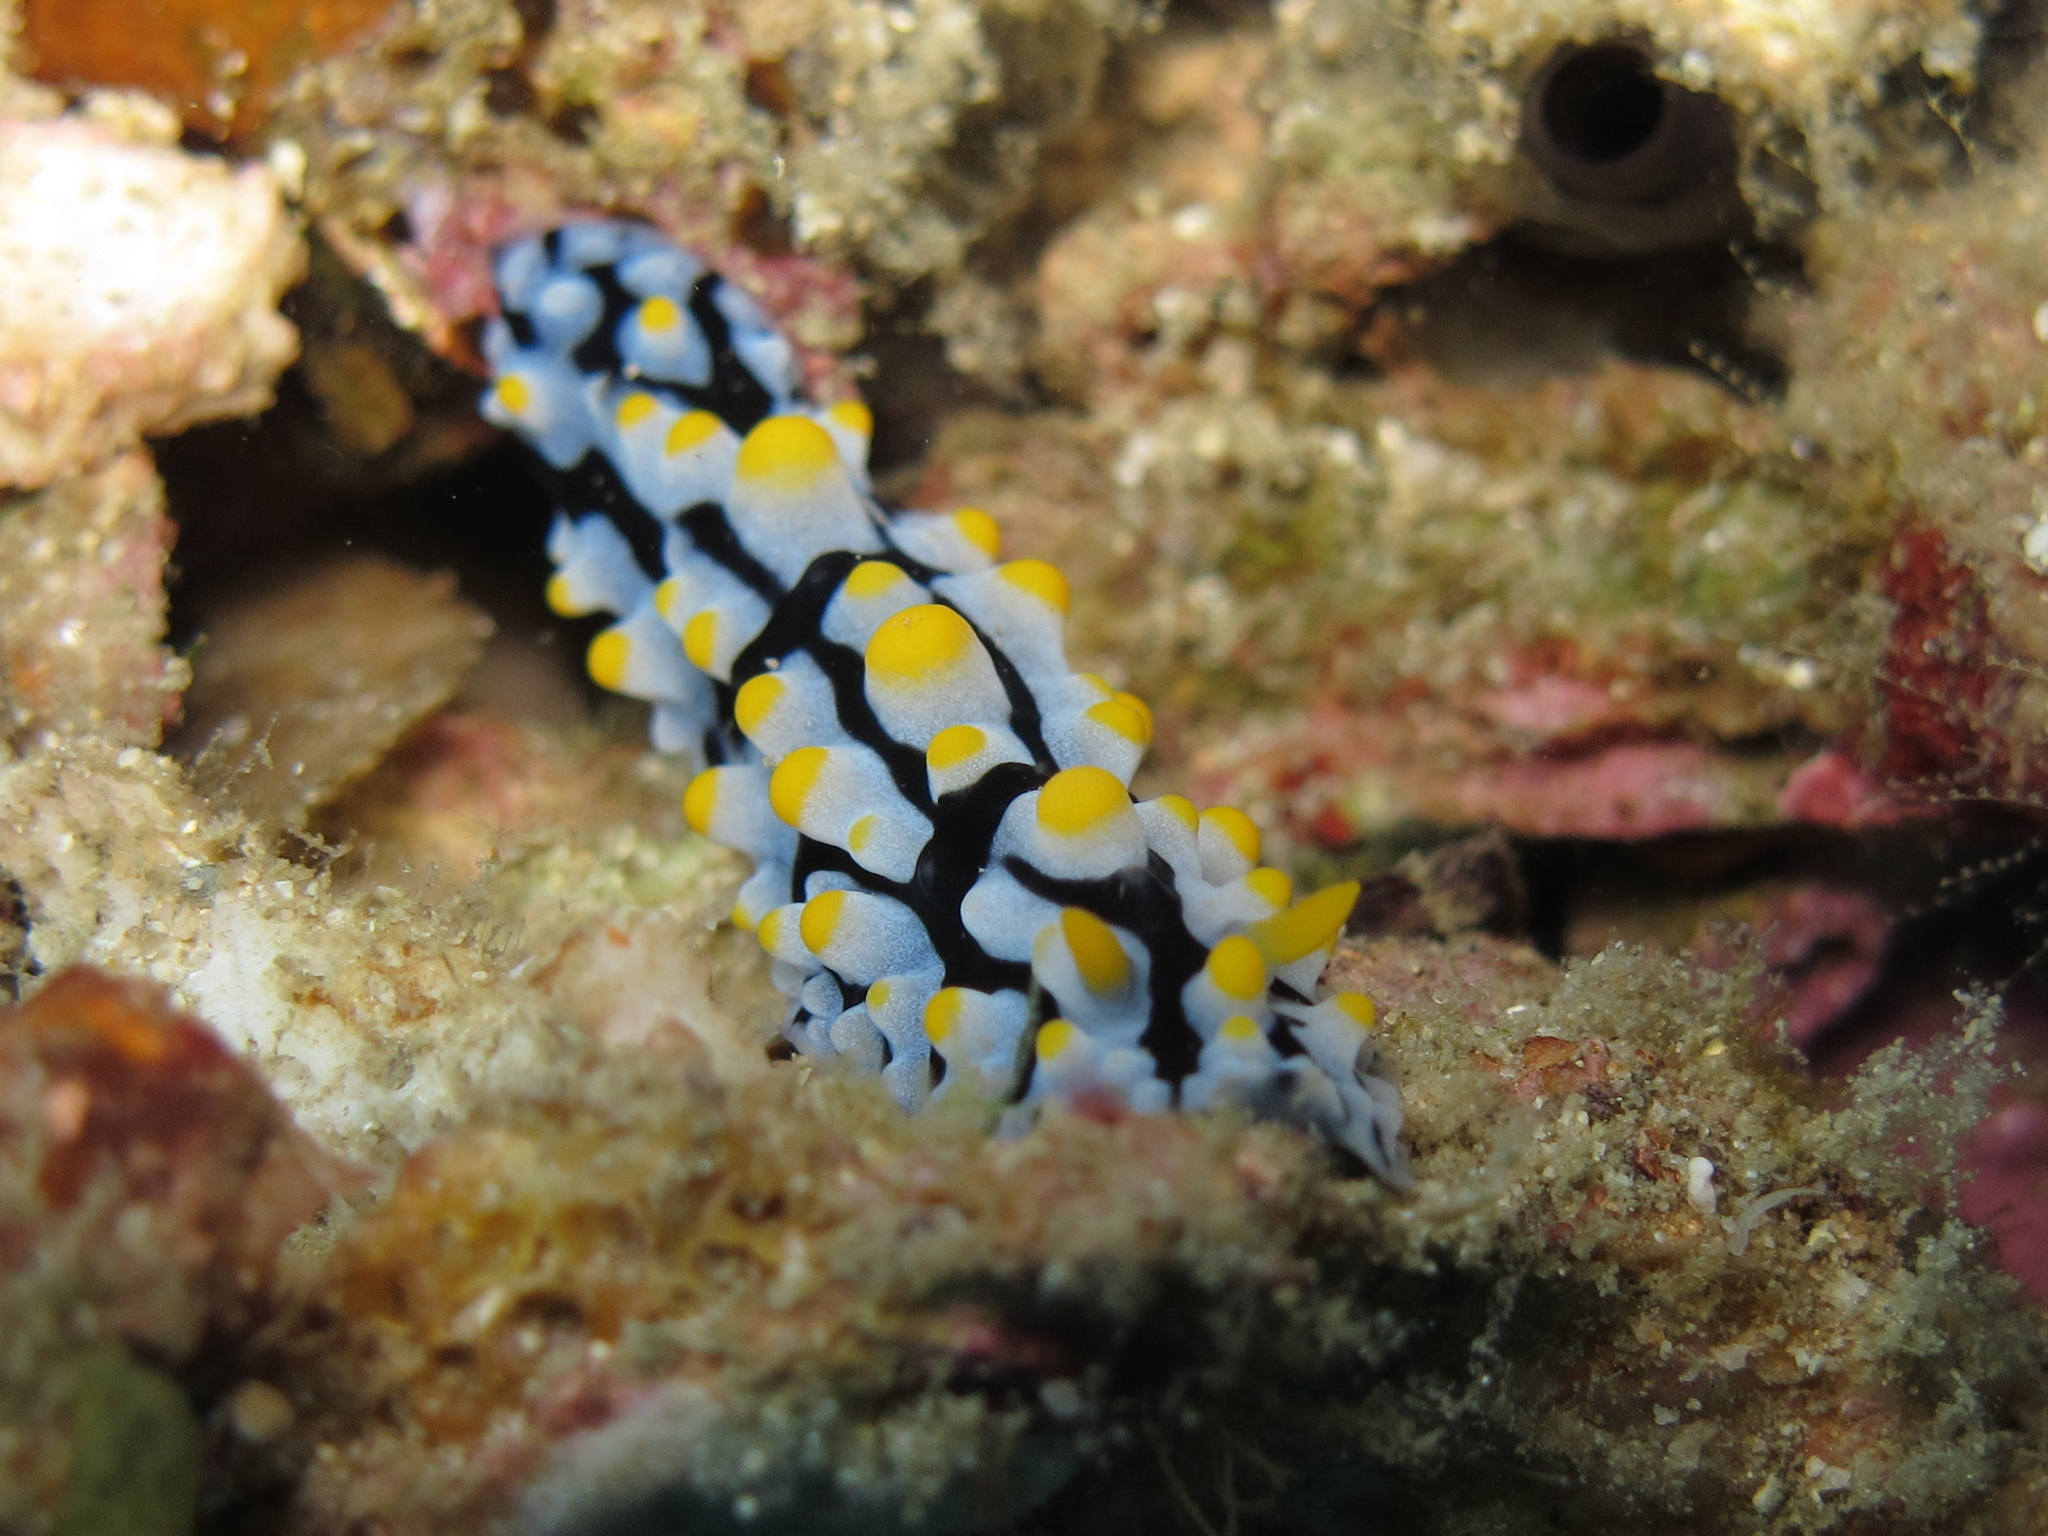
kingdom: Animalia
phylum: Mollusca
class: Gastropoda
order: Nudibranchia
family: Phyllidiidae
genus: Phyllidia
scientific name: Phyllidia varicosa
